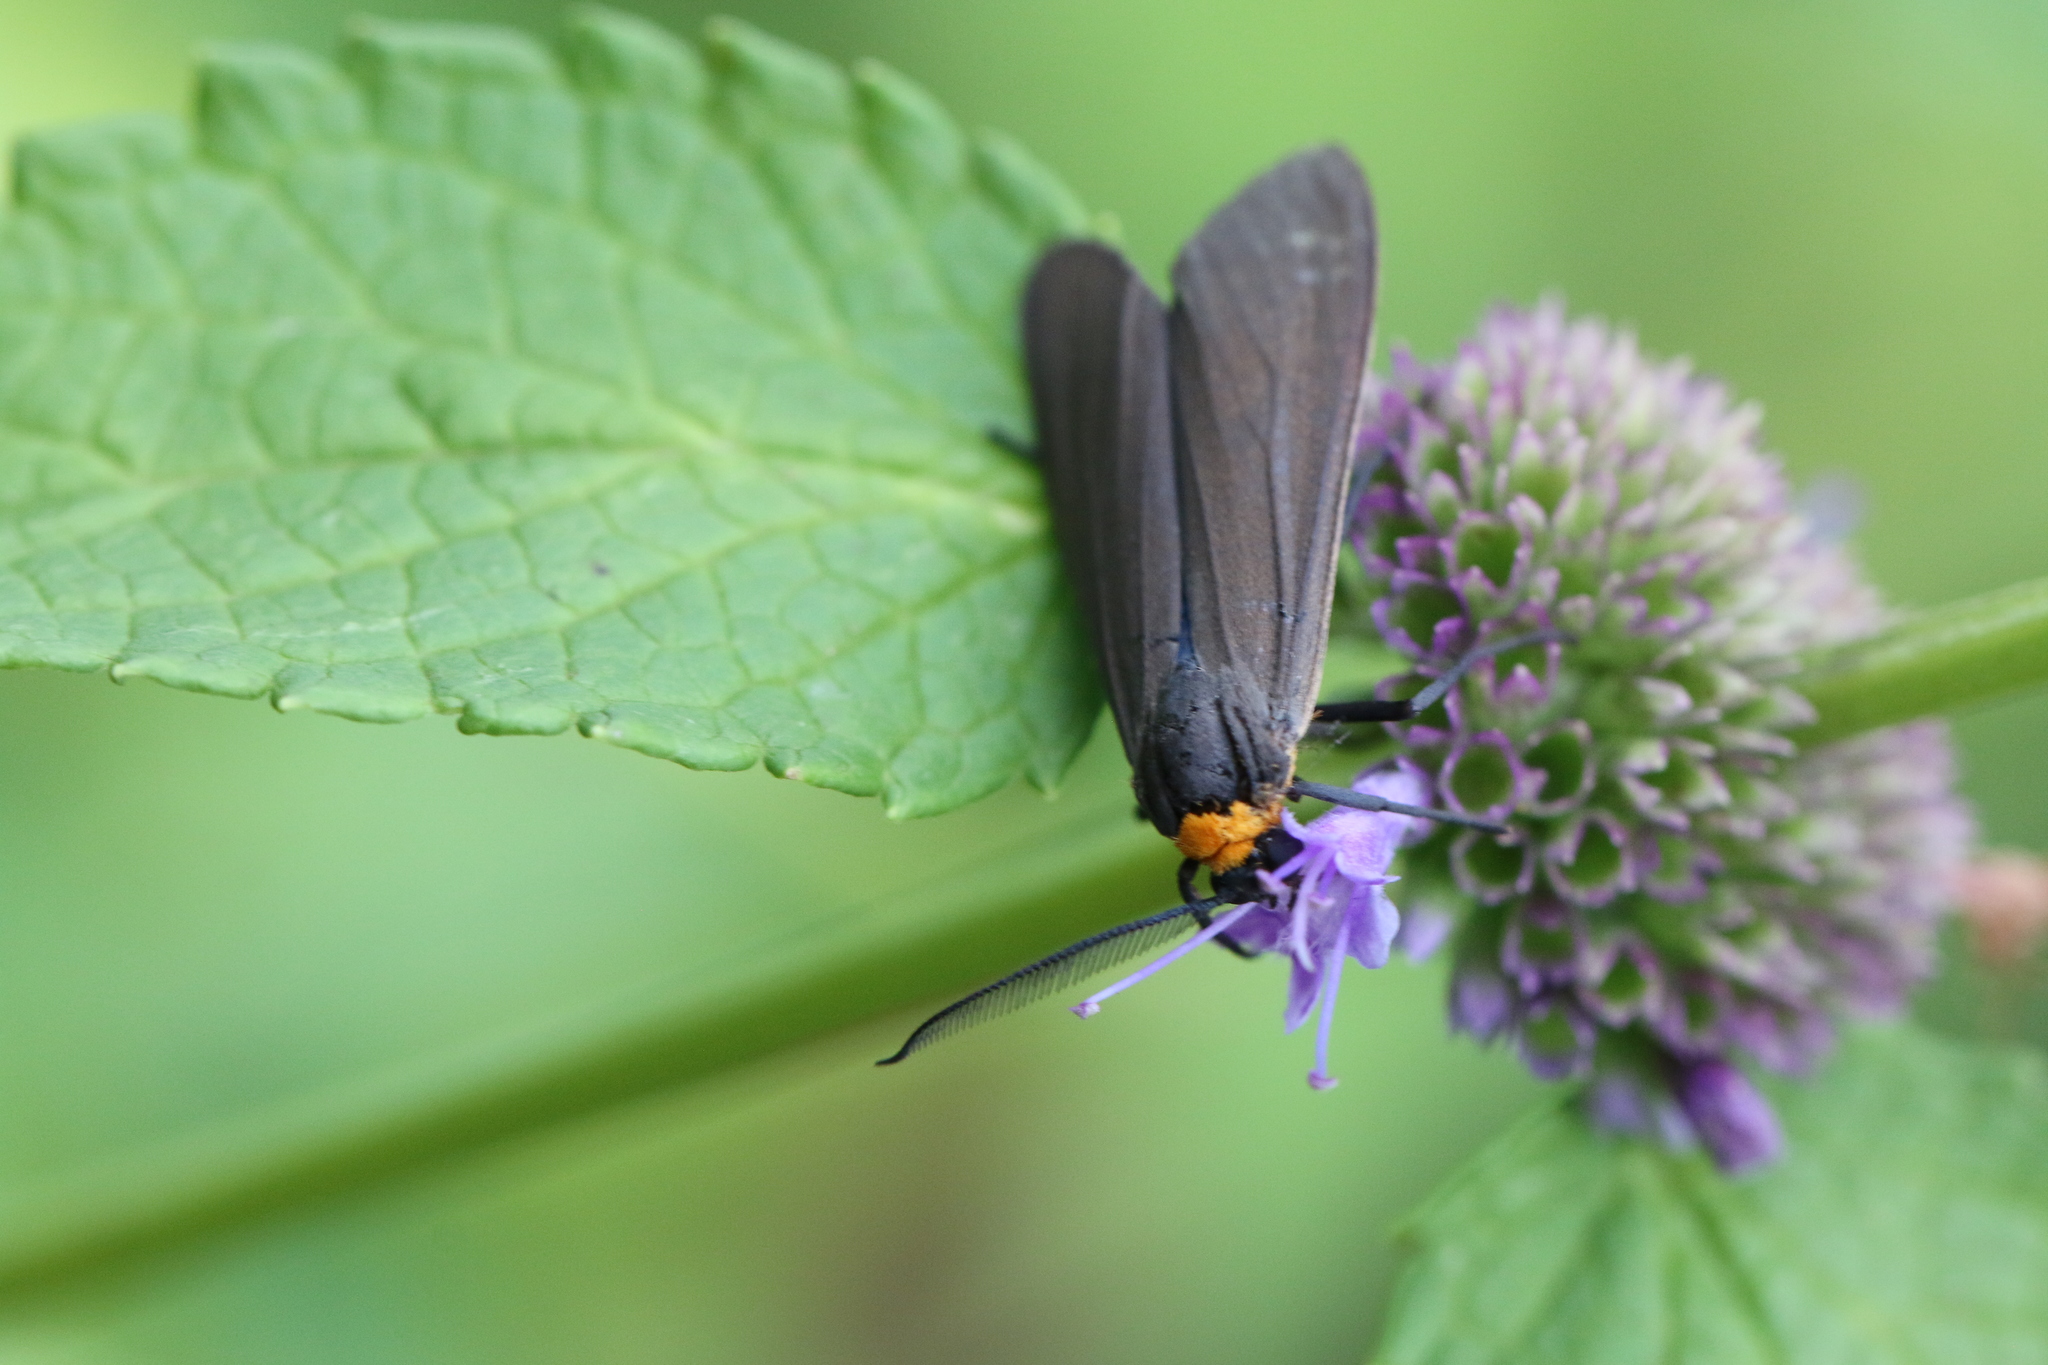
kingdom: Animalia
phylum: Arthropoda
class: Insecta
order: Lepidoptera
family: Erebidae
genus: Cisseps
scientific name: Cisseps fulvicollis
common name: Yellow-collared scape moth
